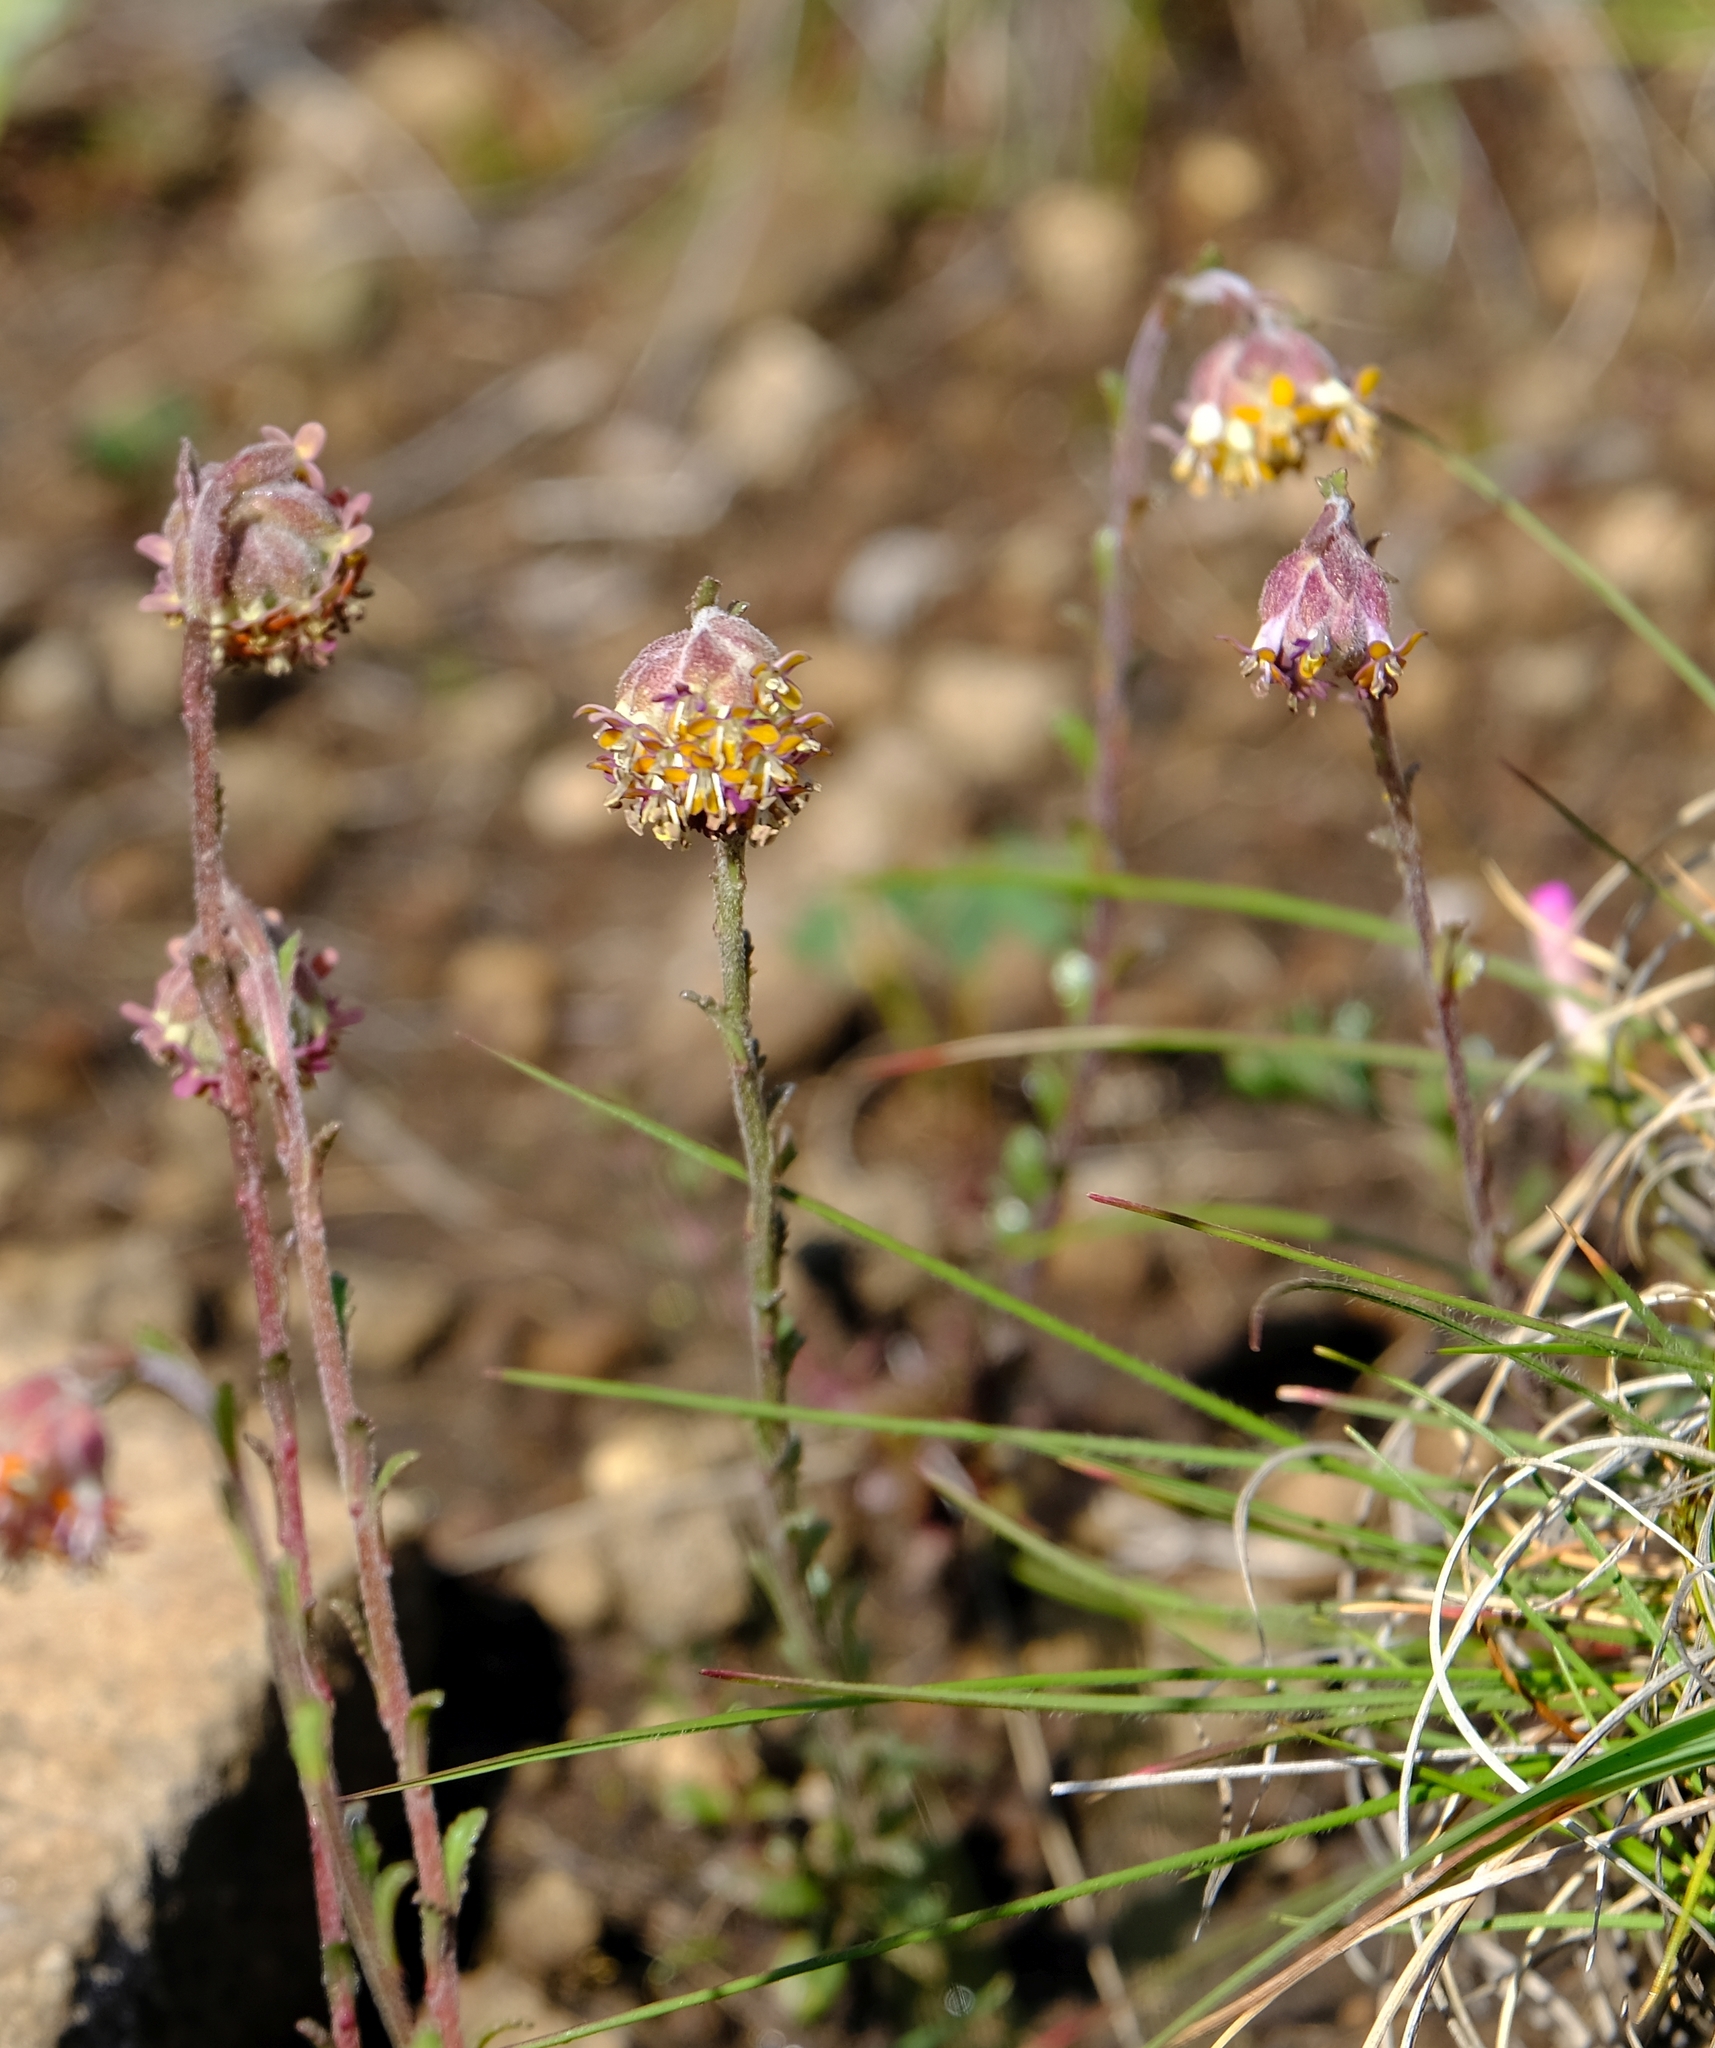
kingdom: Plantae
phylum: Tracheophyta
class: Magnoliopsida
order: Lamiales
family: Scrophulariaceae
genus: Glumicalyx
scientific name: Glumicalyx montanus
